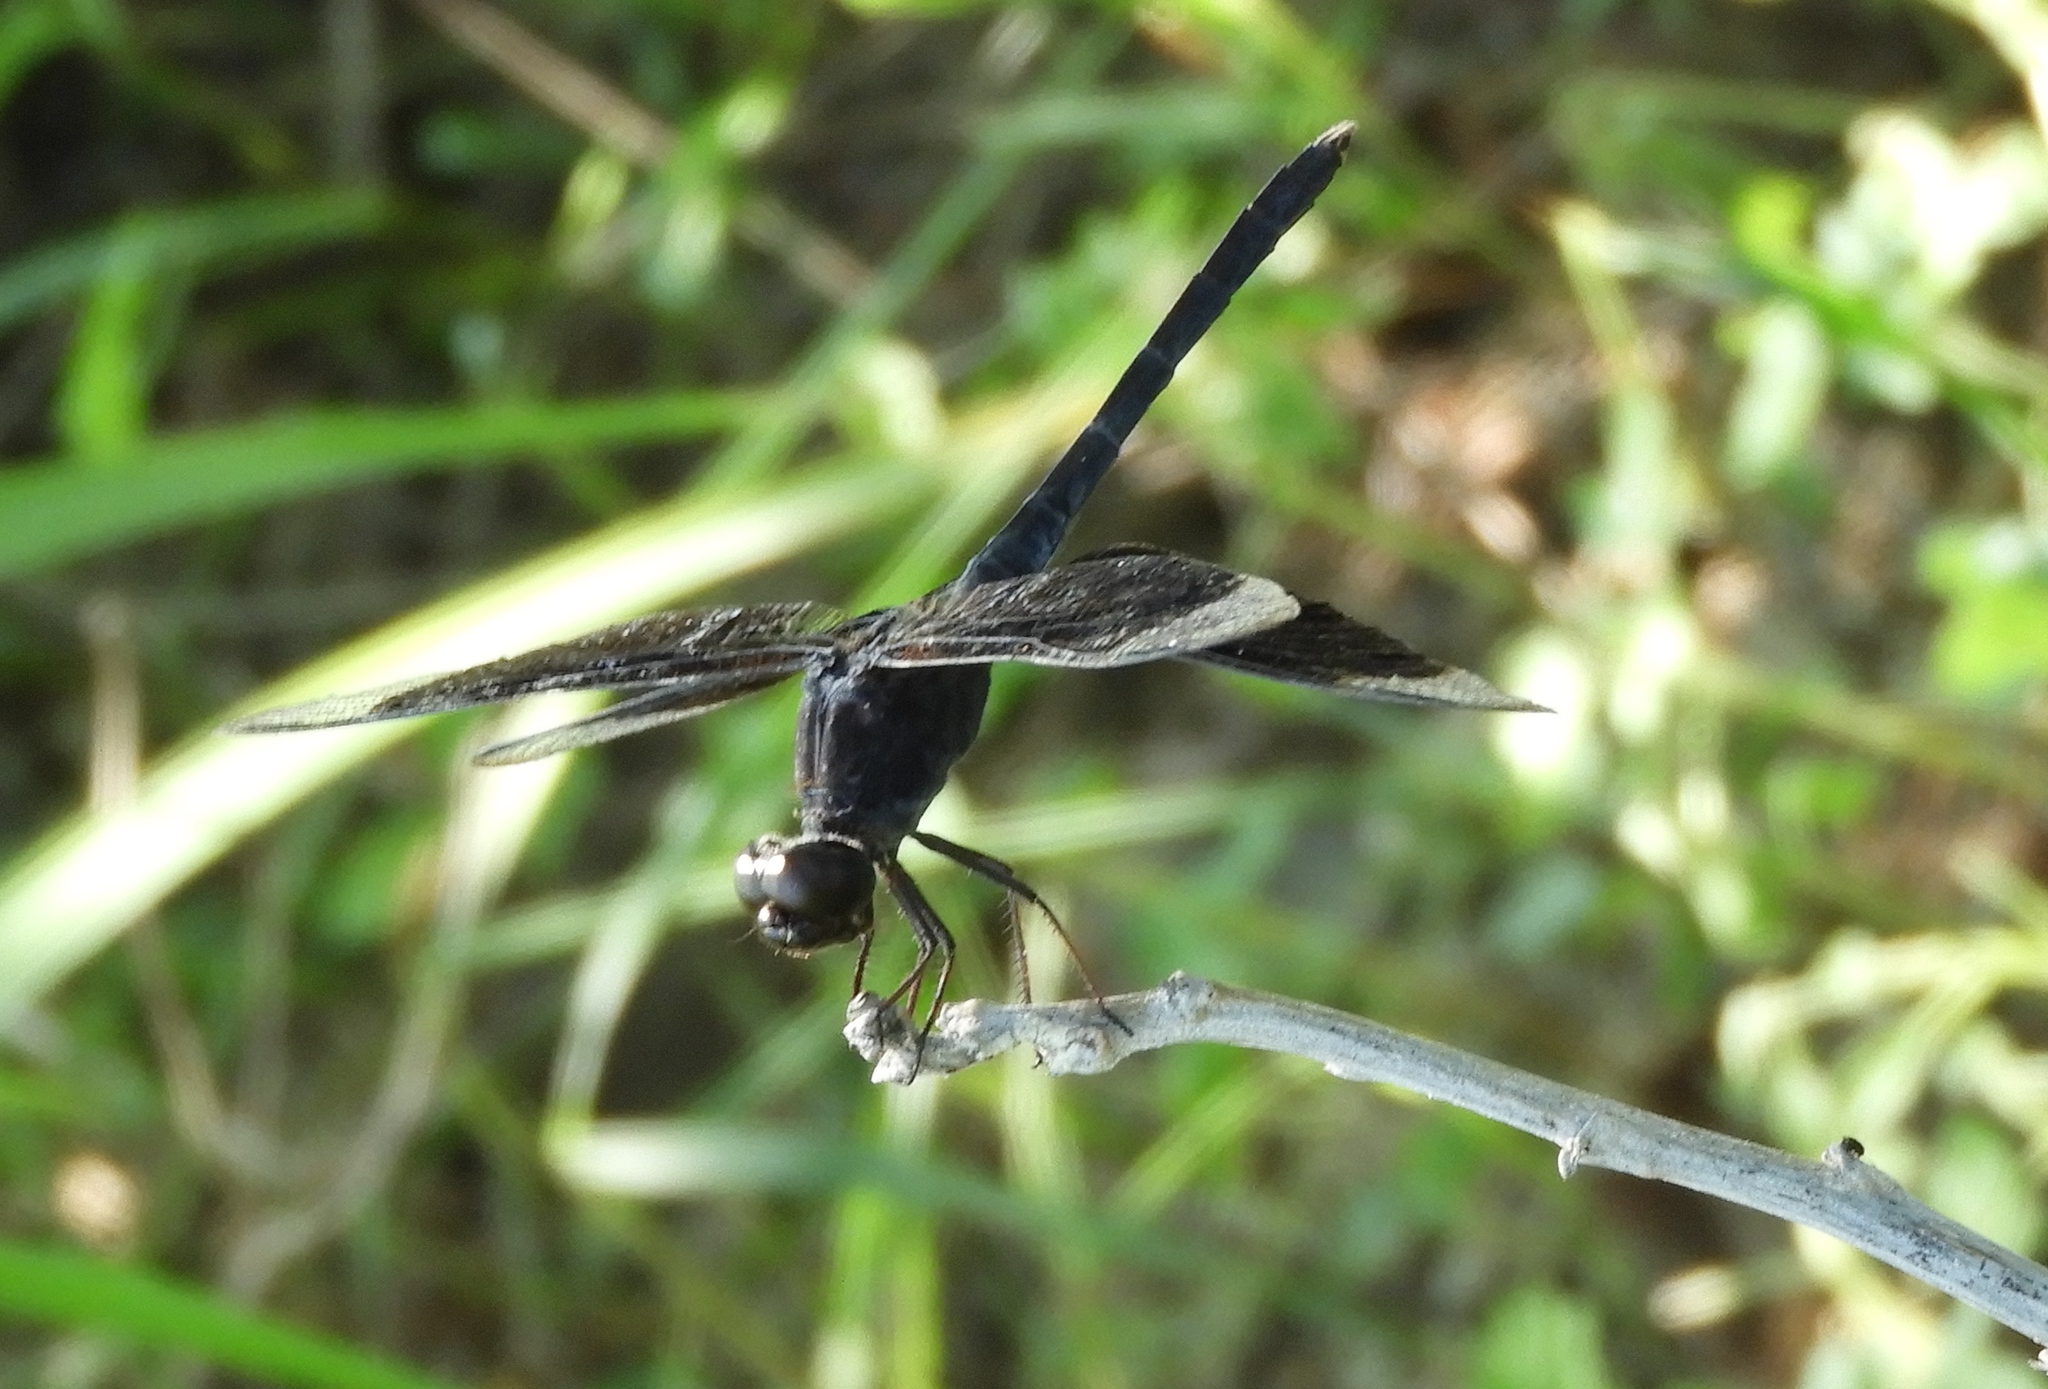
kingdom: Animalia
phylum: Arthropoda
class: Insecta
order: Odonata
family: Libellulidae
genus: Erythrodiplax
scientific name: Erythrodiplax funerea
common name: Black-winged dragonlet
